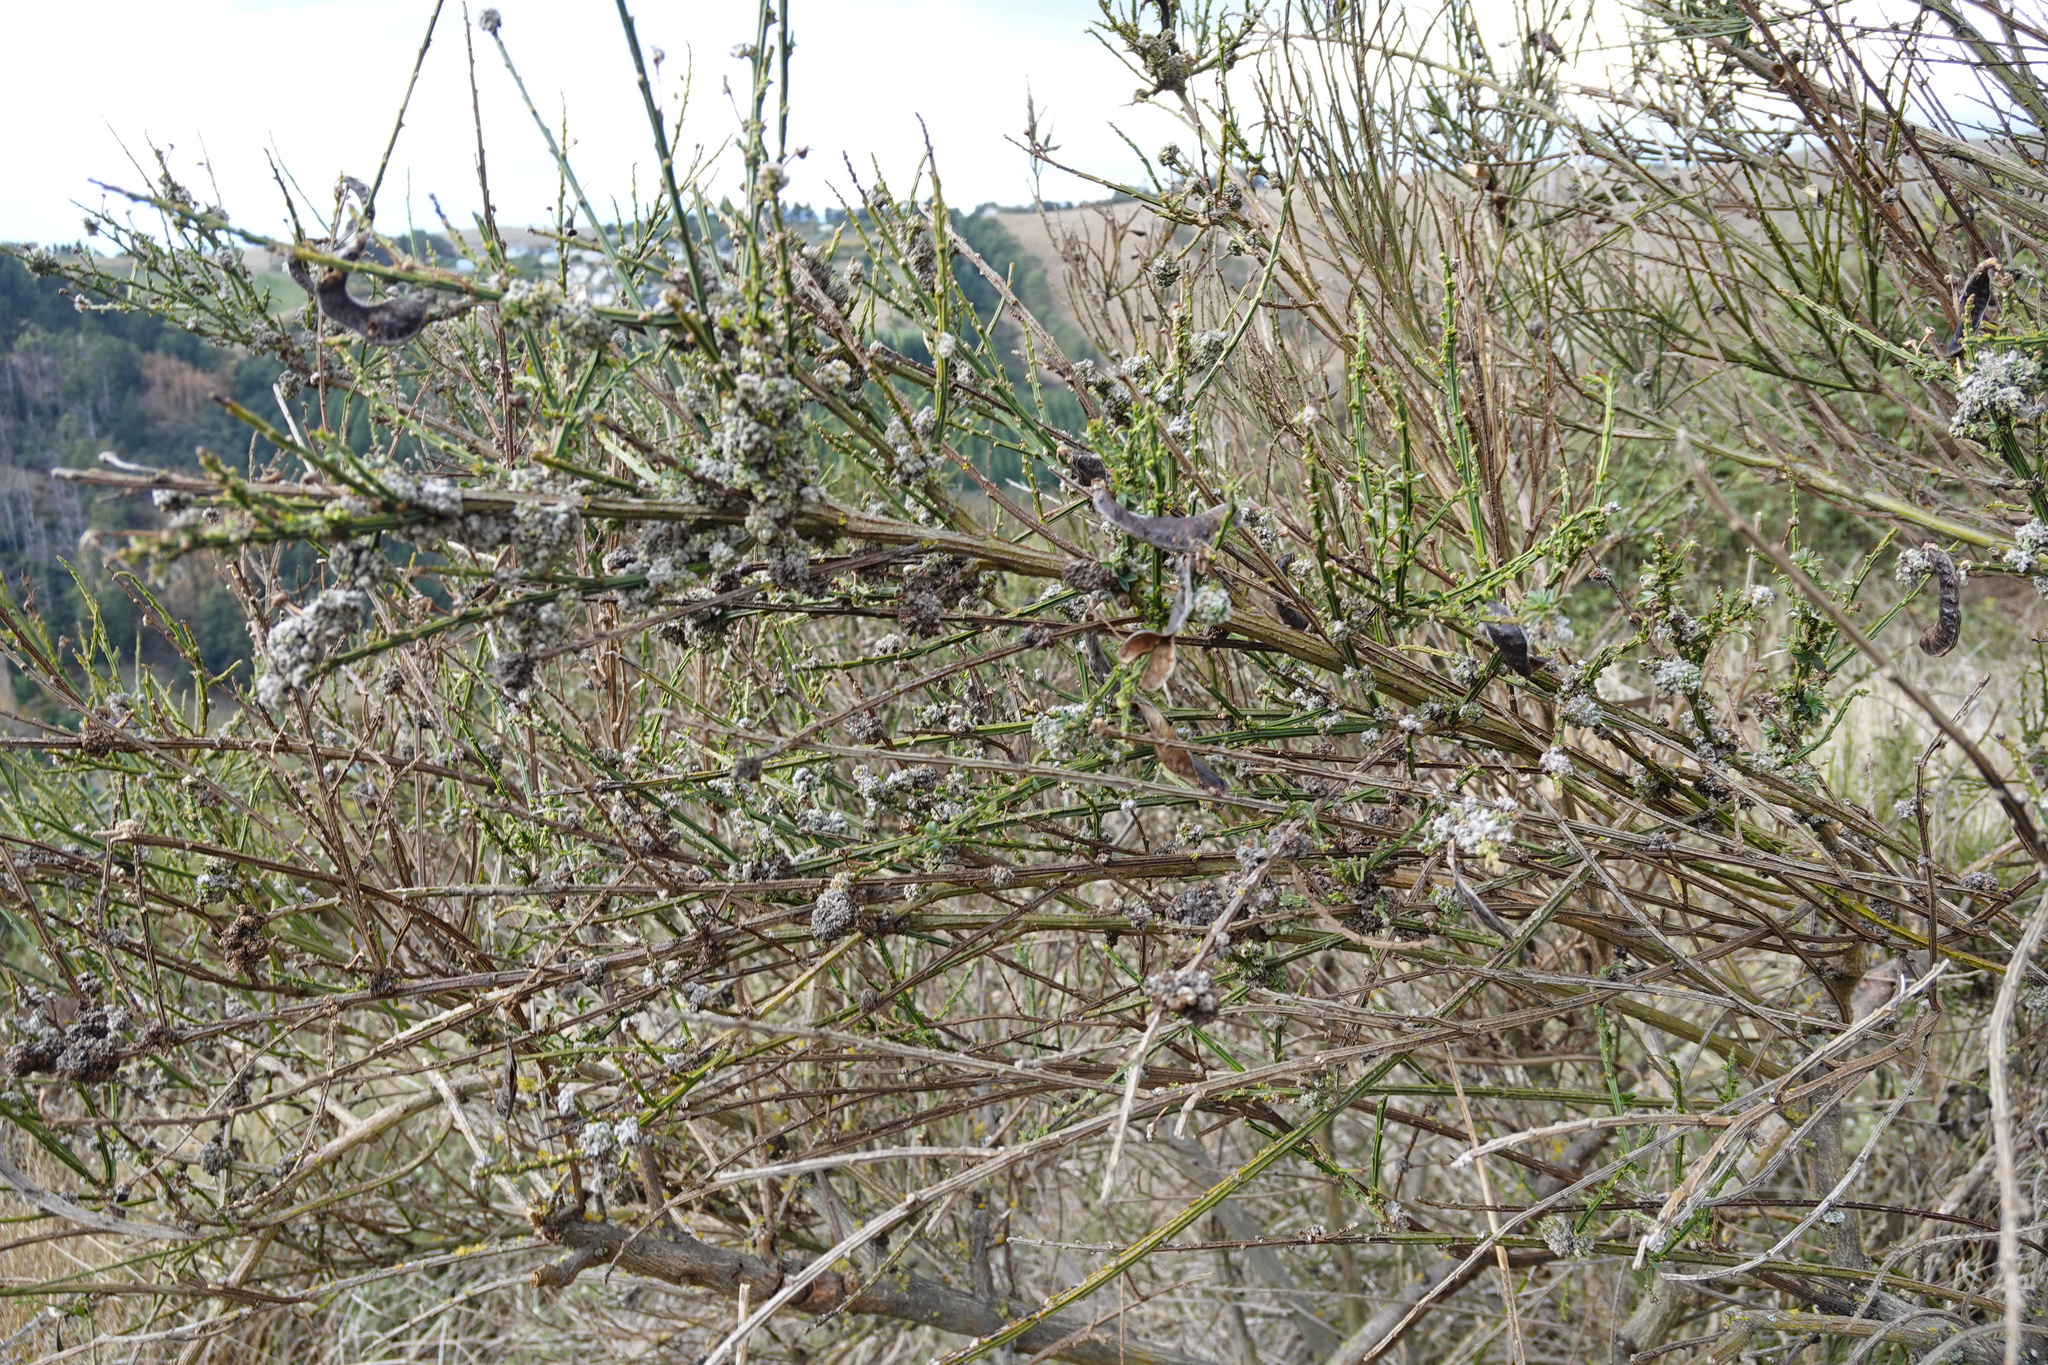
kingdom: Animalia
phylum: Arthropoda
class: Arachnida
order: Trombidiformes
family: Eriophyidae
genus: Aceria
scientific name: Aceria genistae
